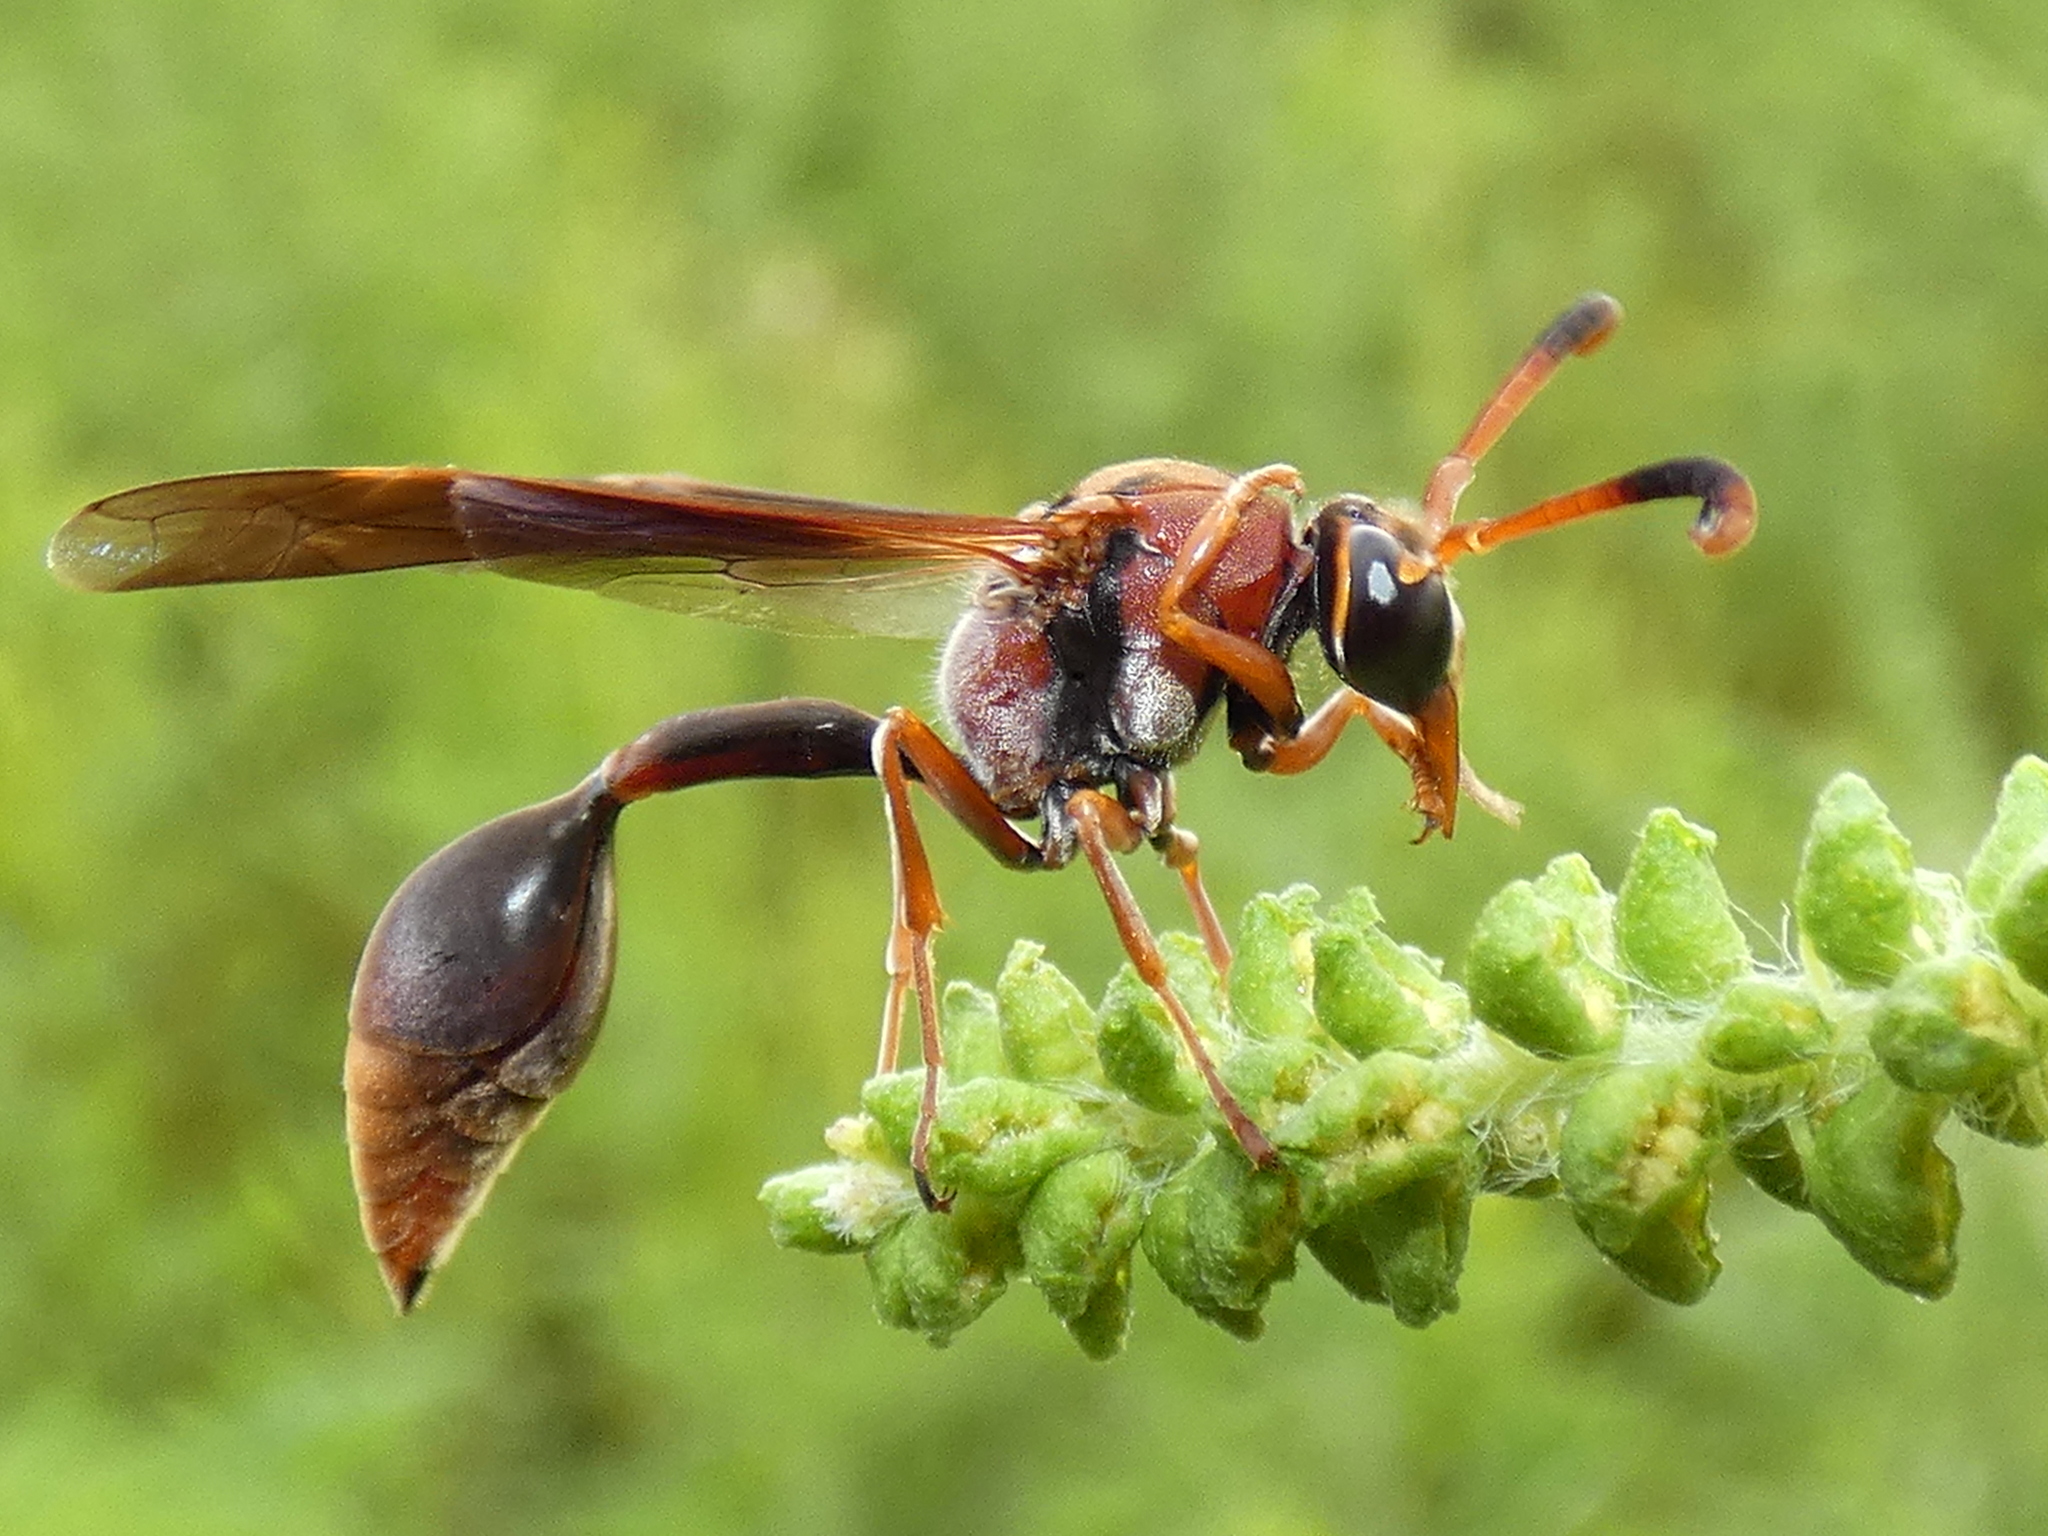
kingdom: Animalia
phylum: Arthropoda
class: Insecta
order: Hymenoptera
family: Eumenidae
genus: Zeta
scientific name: Zeta argillaceum
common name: Potter wasp
